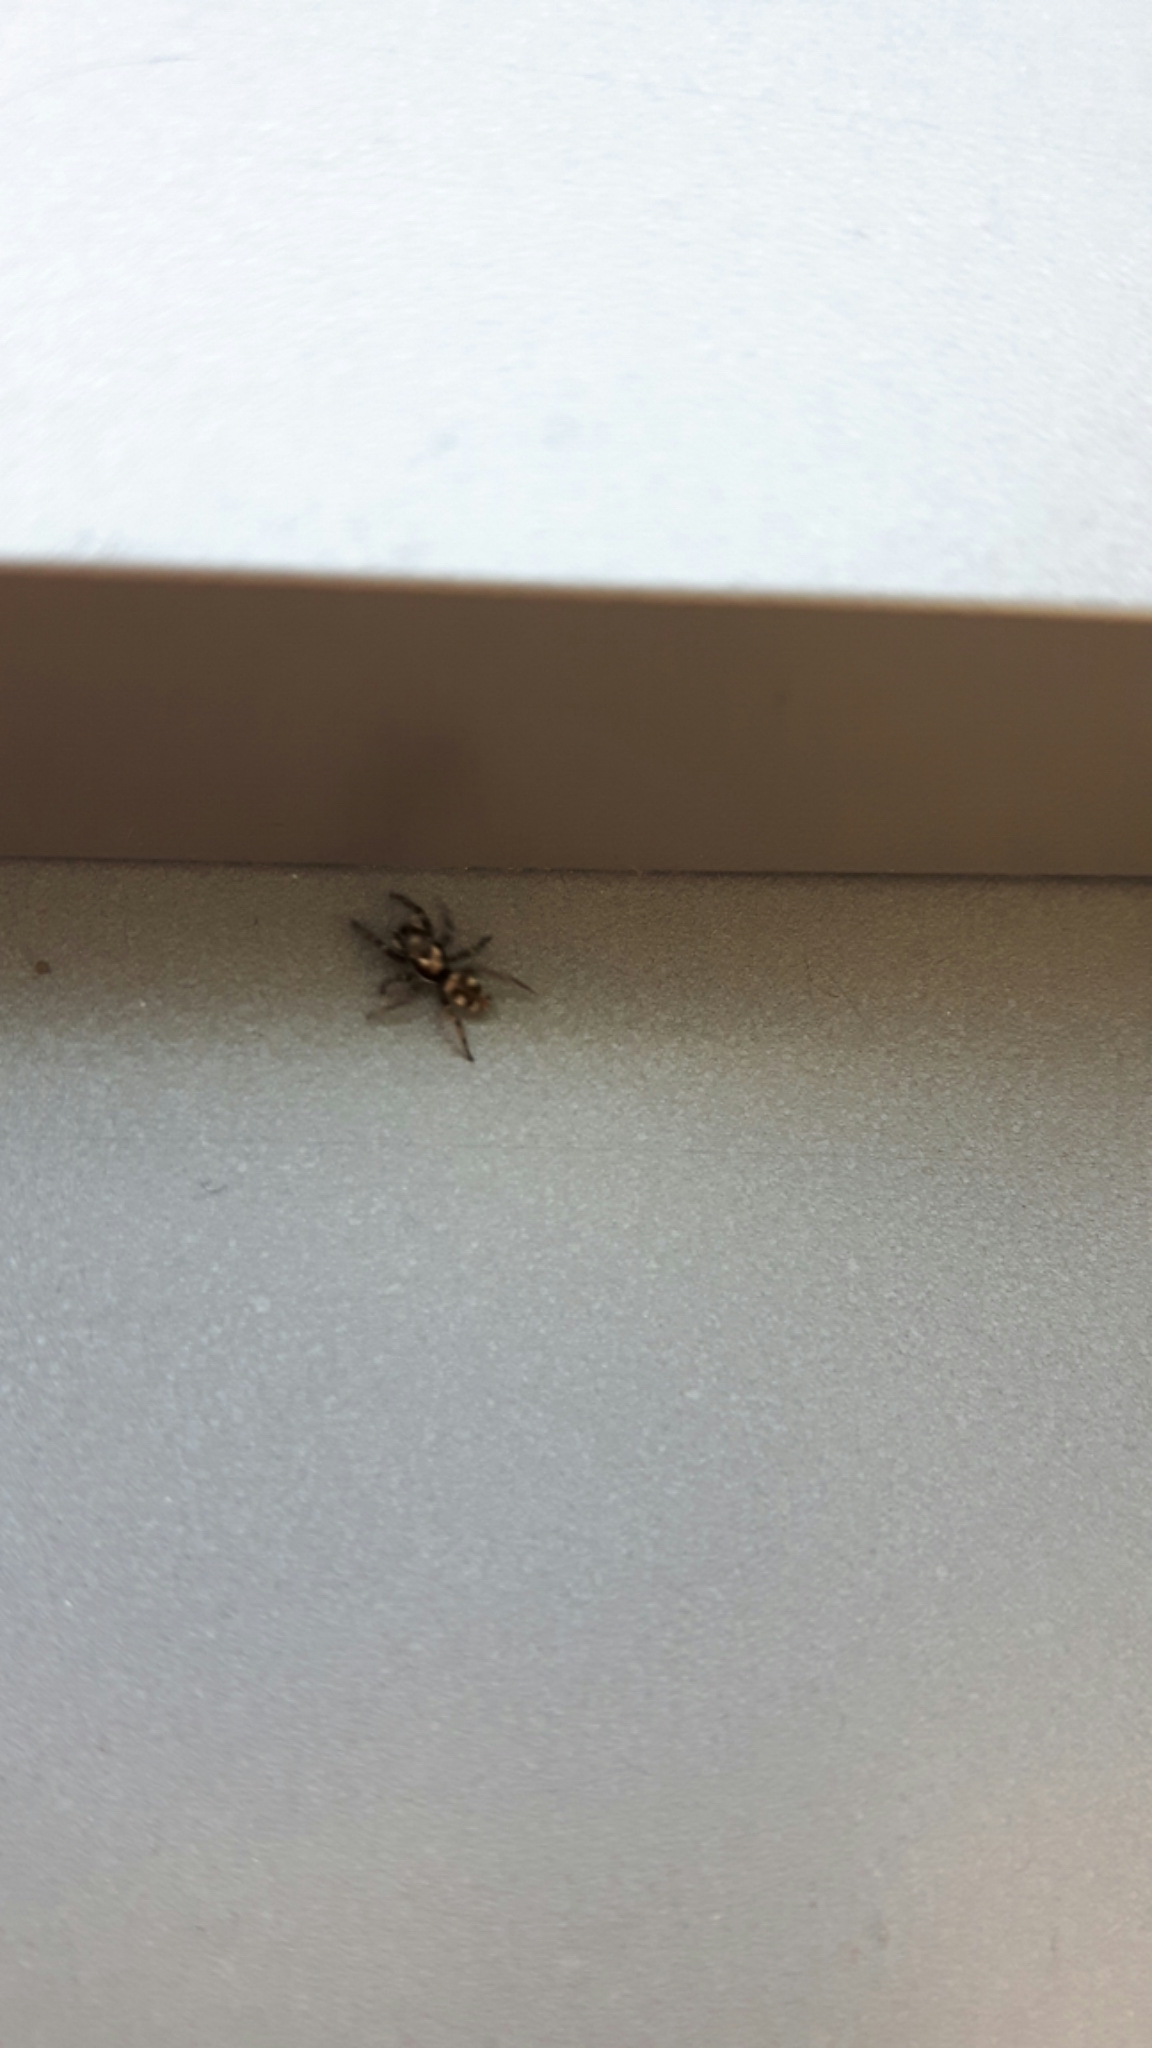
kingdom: Animalia
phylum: Arthropoda
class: Arachnida
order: Araneae
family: Salticidae
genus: Salticus
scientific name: Salticus scenicus
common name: Zebra jumper
